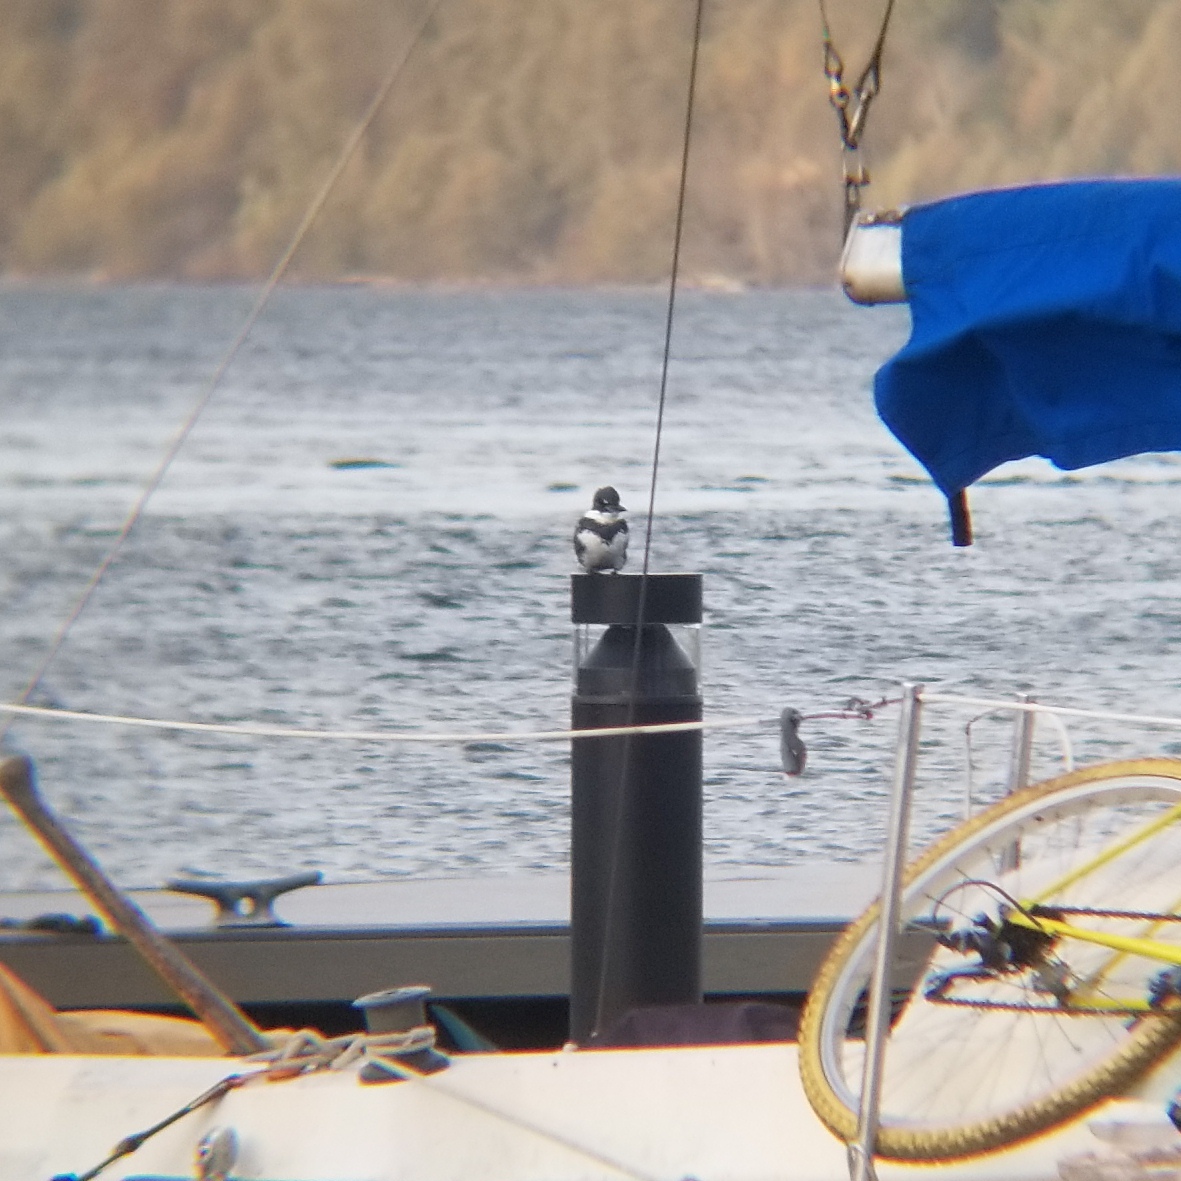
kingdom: Animalia
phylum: Chordata
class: Aves
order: Coraciiformes
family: Alcedinidae
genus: Megaceryle
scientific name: Megaceryle alcyon
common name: Belted kingfisher
